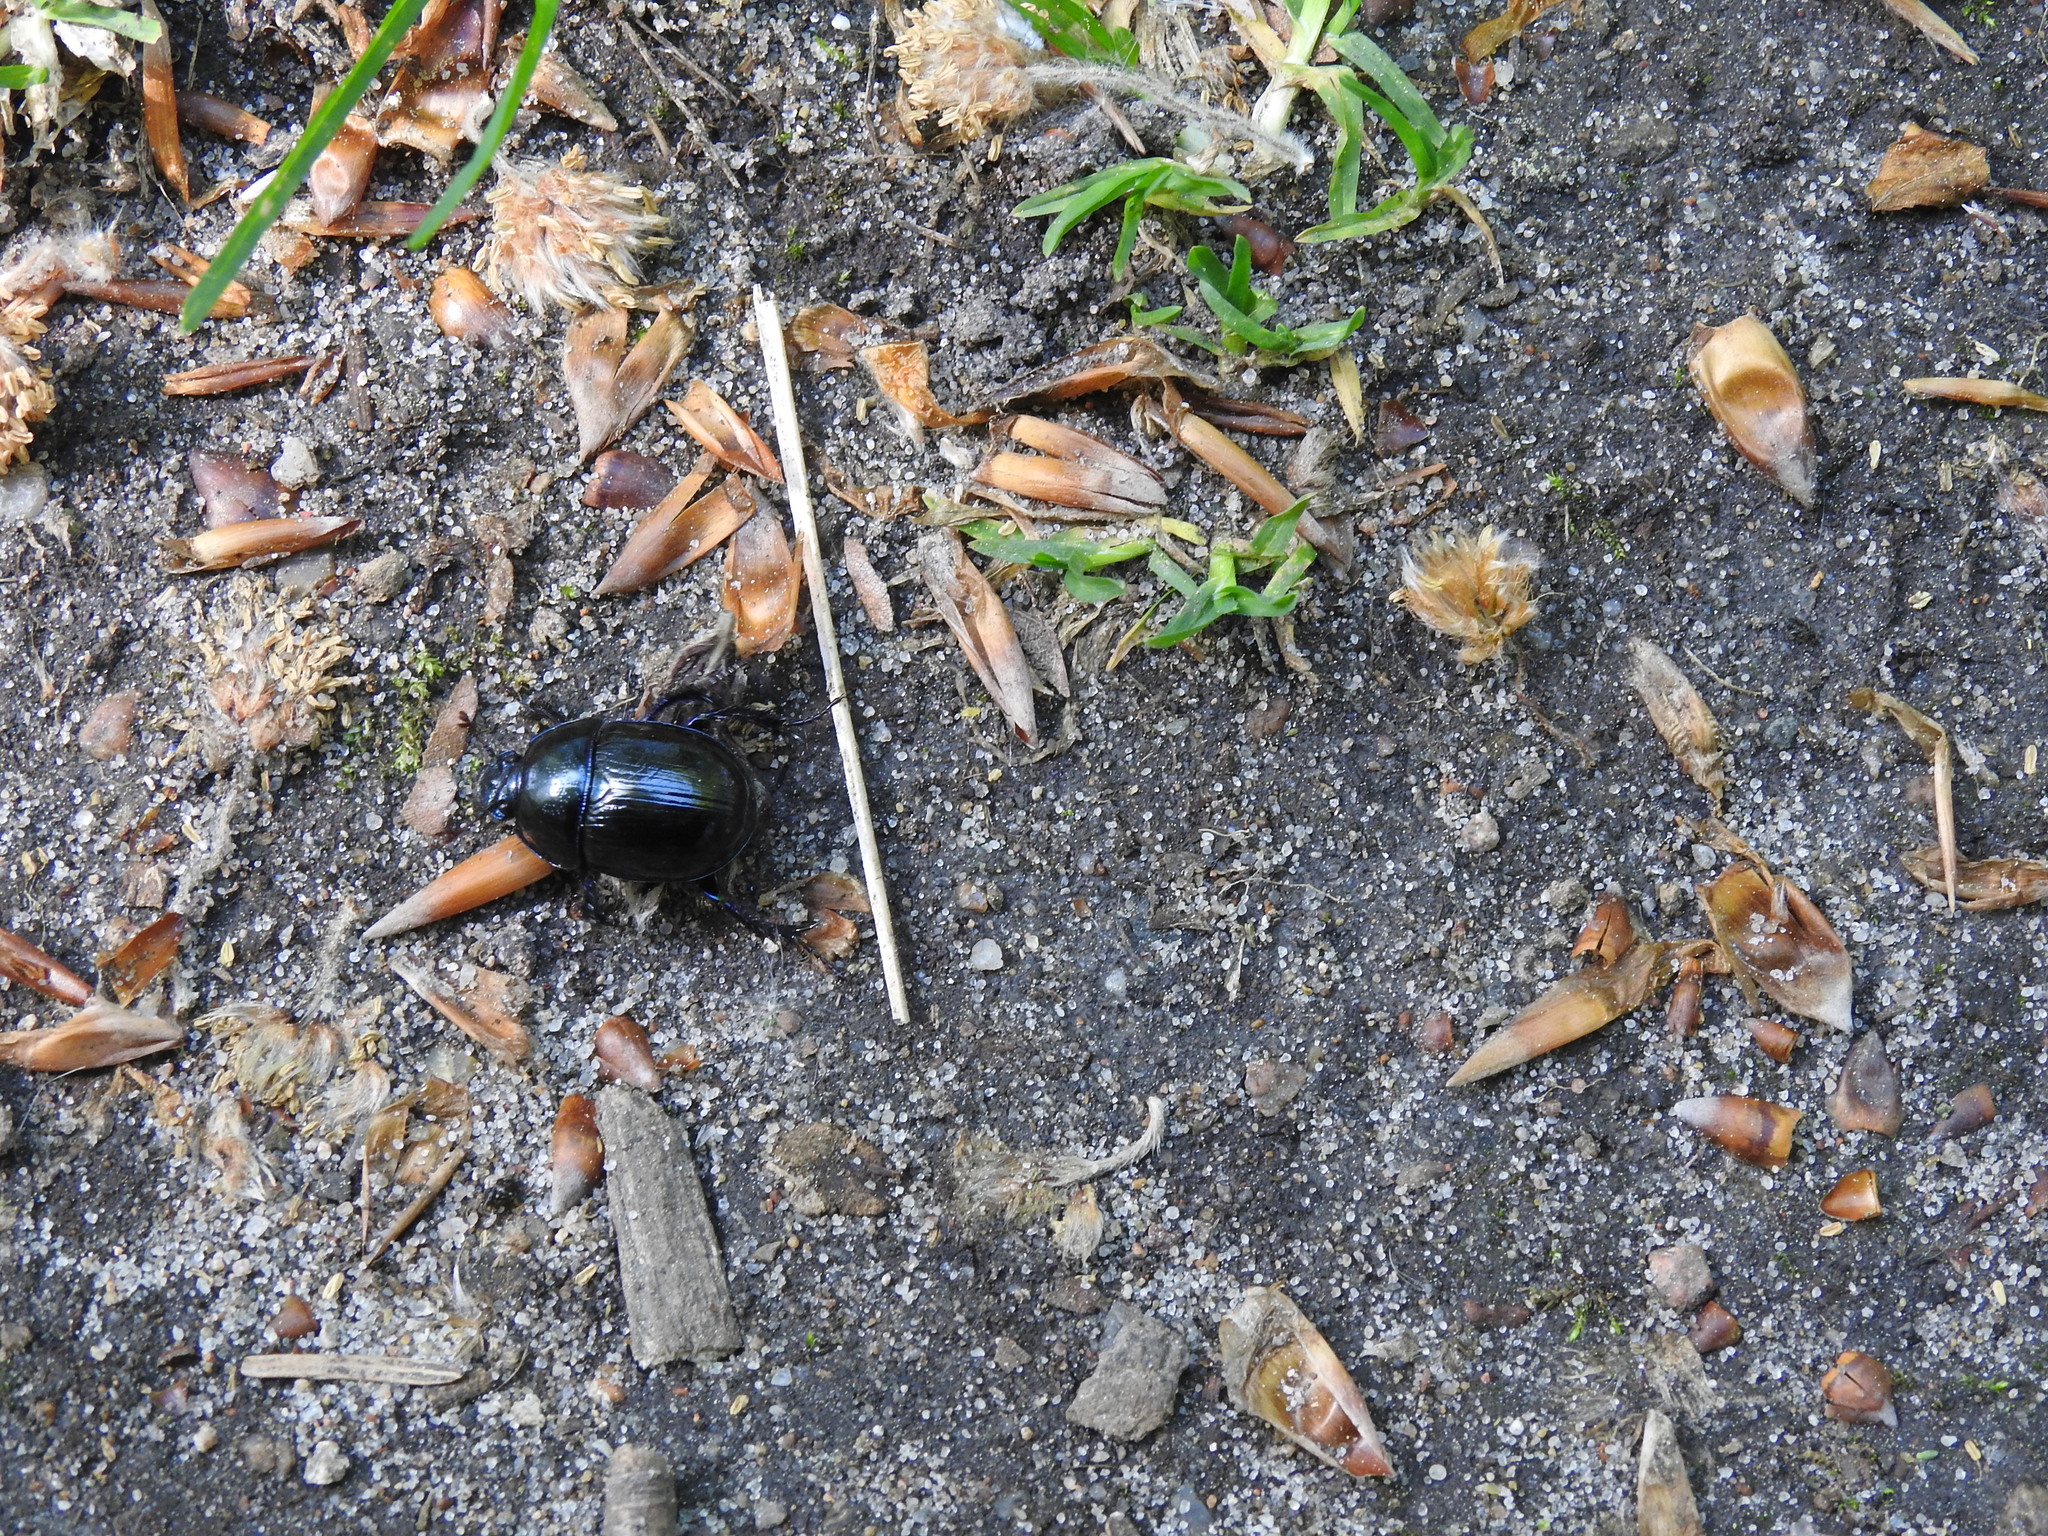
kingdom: Animalia
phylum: Arthropoda
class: Insecta
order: Coleoptera
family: Geotrupidae
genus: Anoplotrupes
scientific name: Anoplotrupes stercorosus
